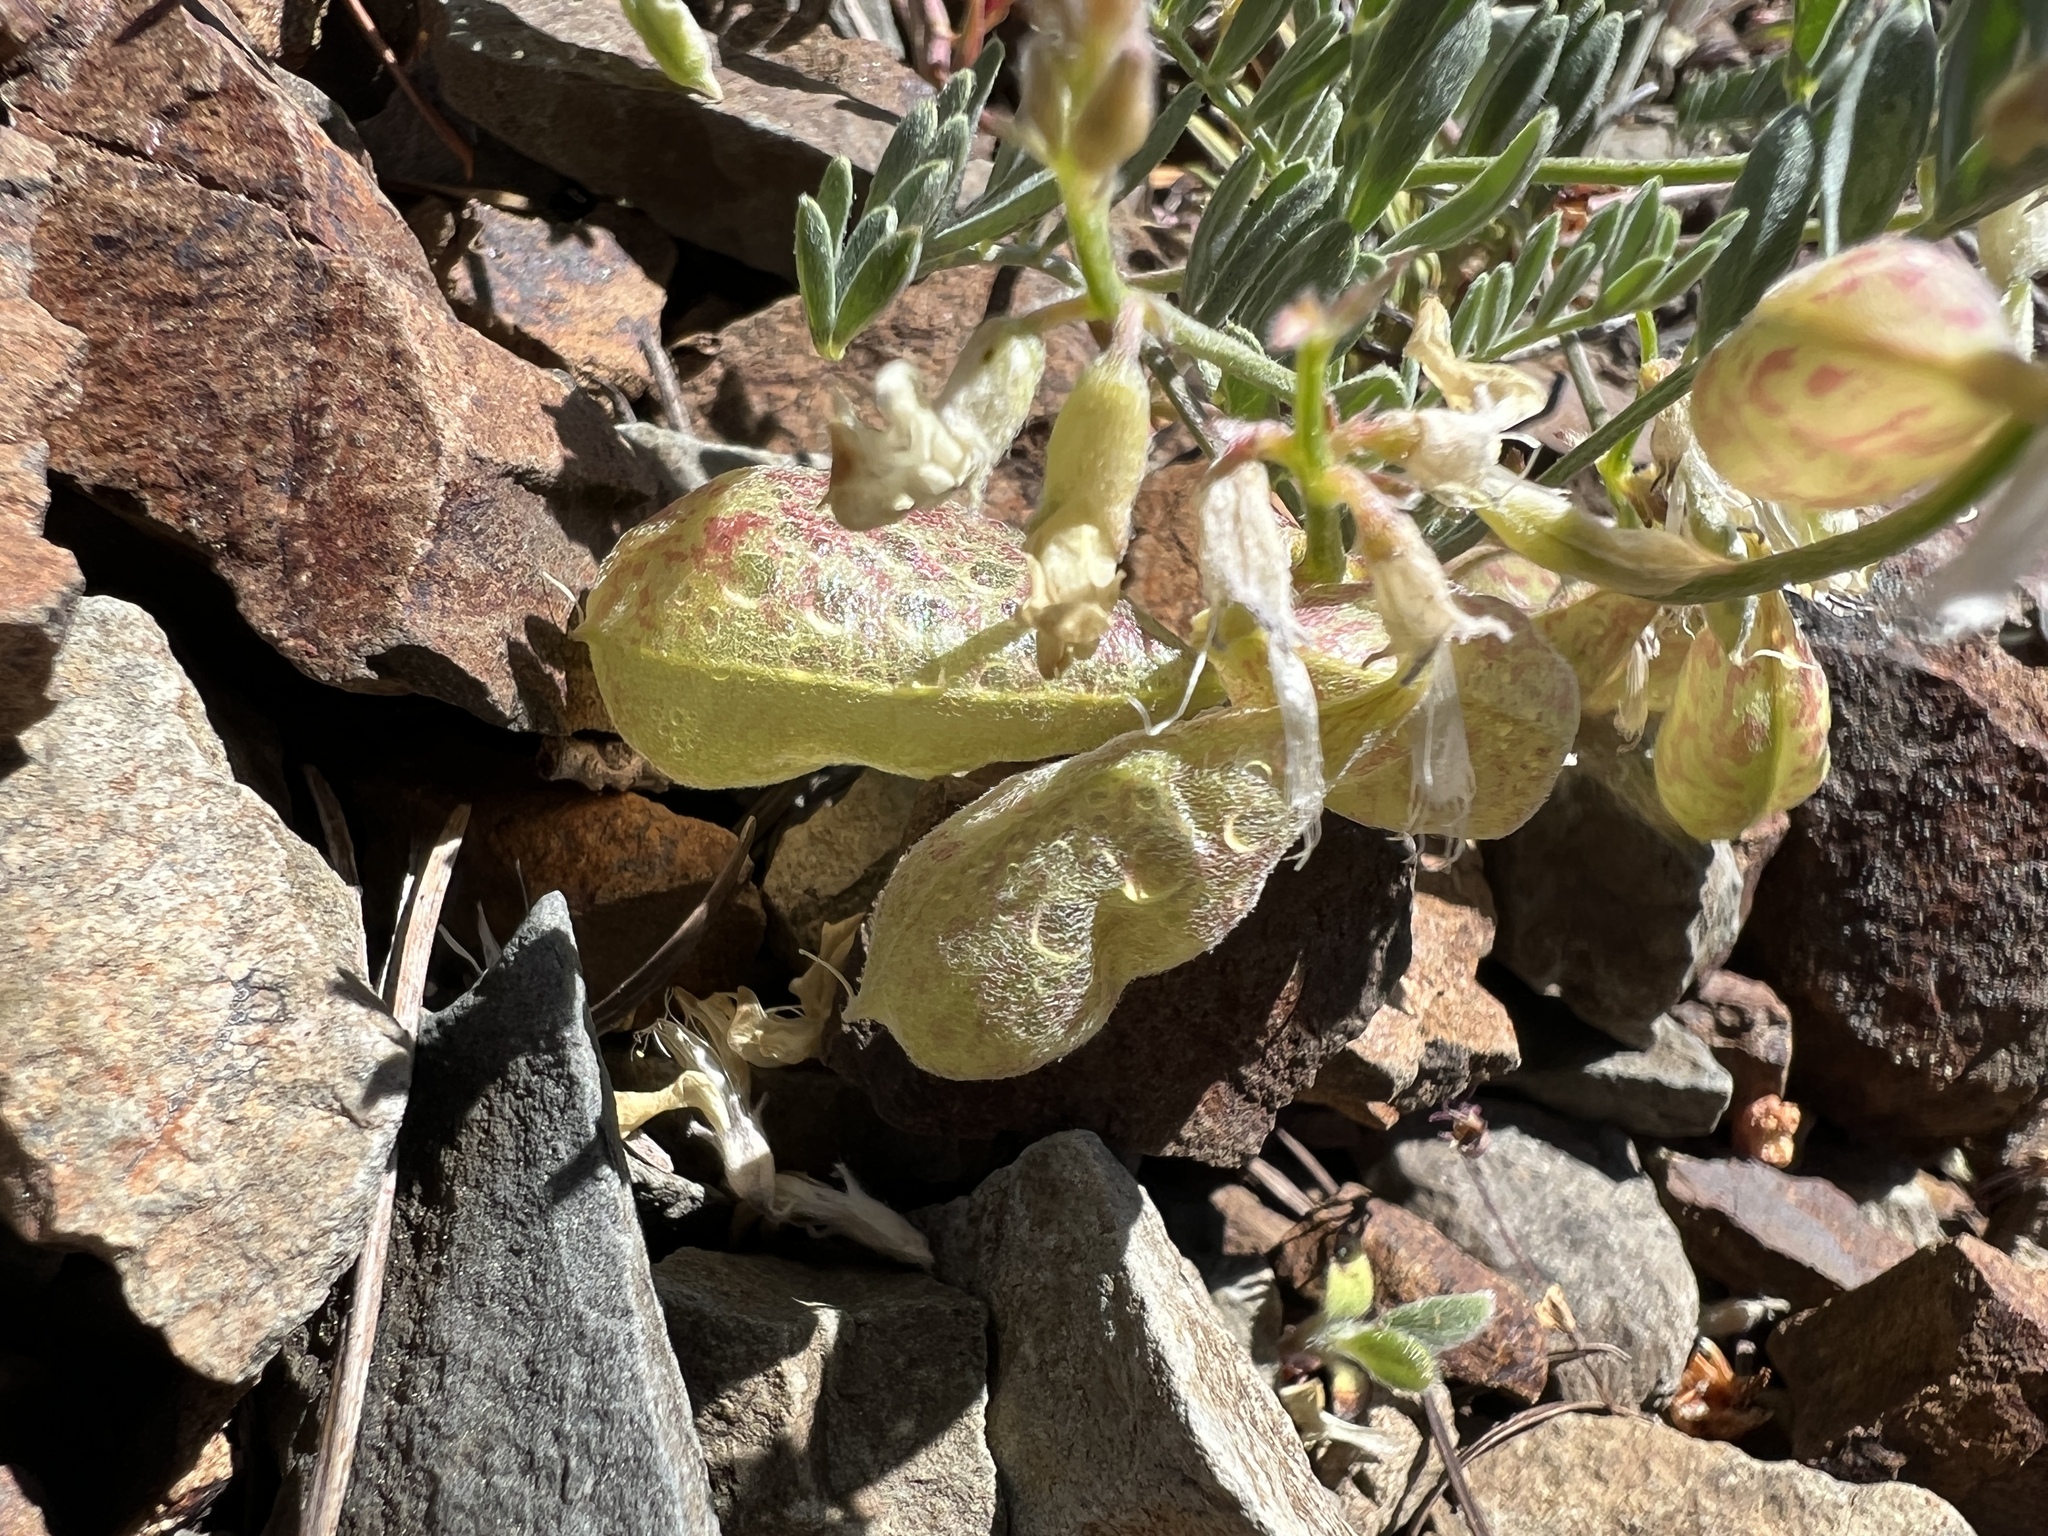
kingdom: Plantae
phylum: Tracheophyta
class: Magnoliopsida
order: Fabales
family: Fabaceae
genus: Astragalus
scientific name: Astragalus whitneyi
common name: Balloonpod milkvetch
